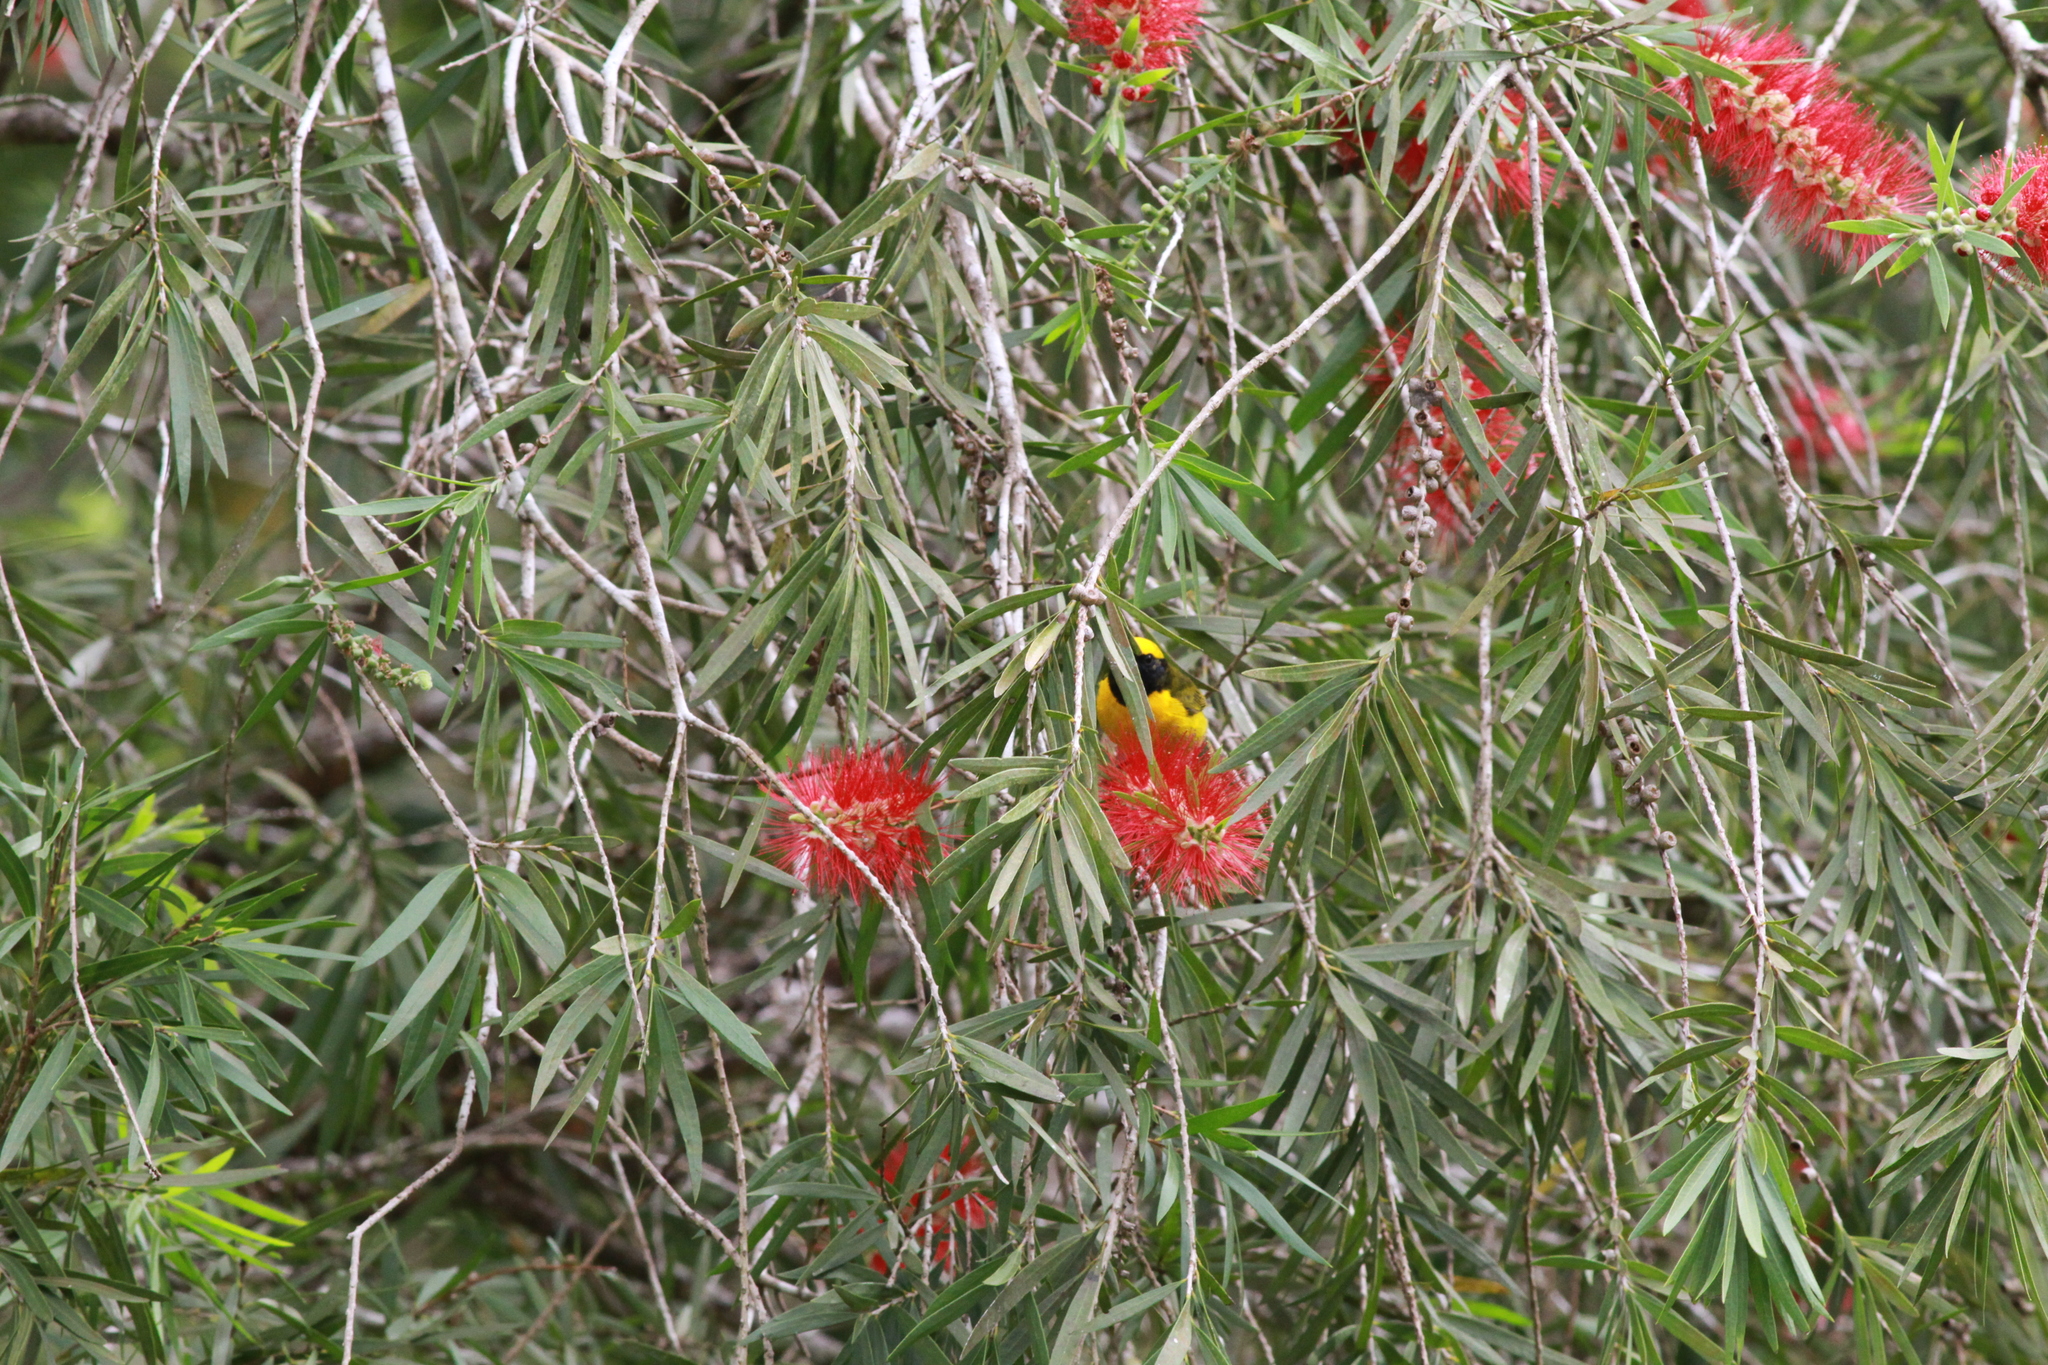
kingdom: Animalia
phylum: Chordata
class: Aves
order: Passeriformes
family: Fringillidae
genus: Euphonia
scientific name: Euphonia luteicapilla
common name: Yellow-crowned euphonia
